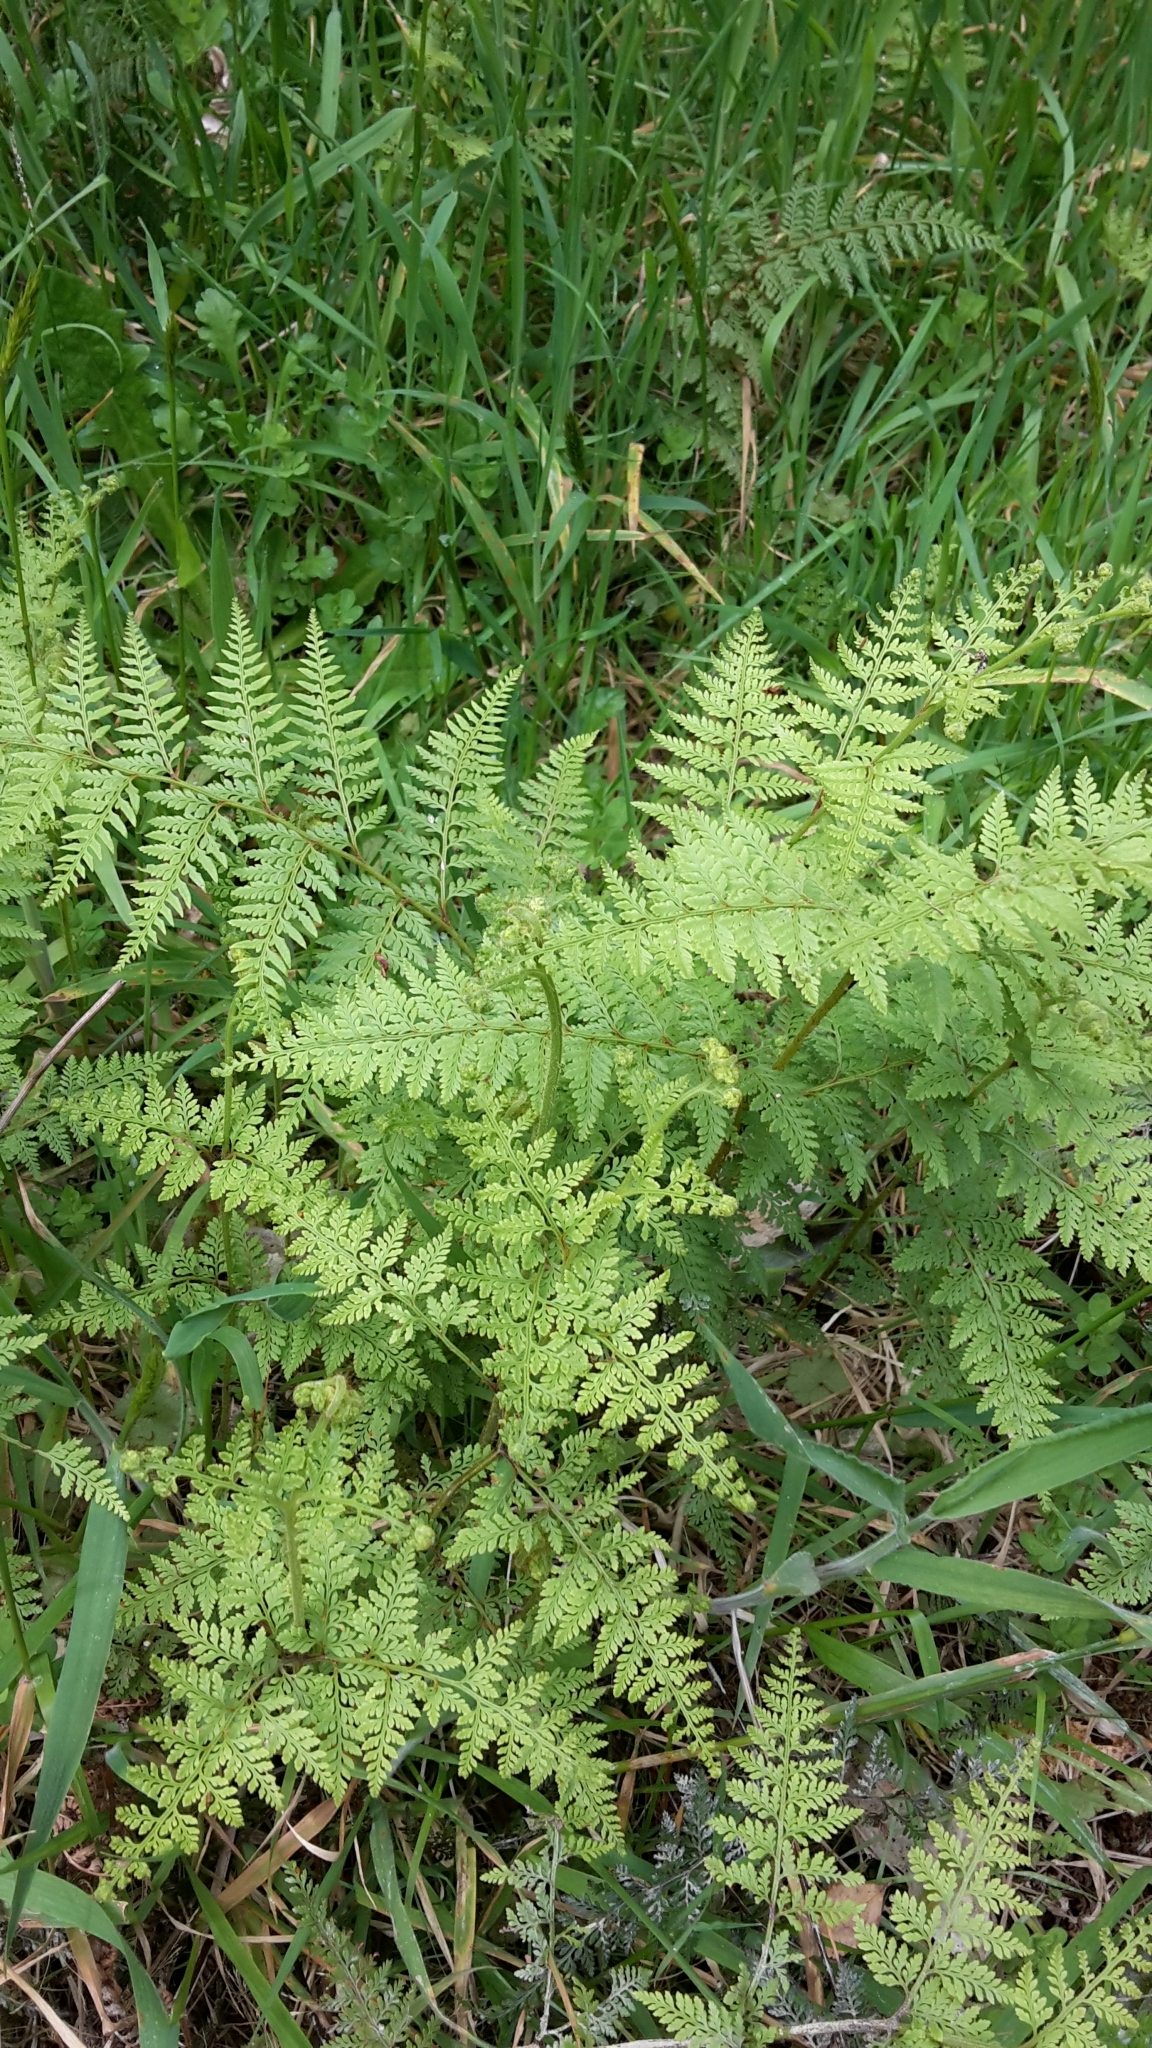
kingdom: Plantae
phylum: Tracheophyta
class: Polypodiopsida
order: Polypodiales
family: Dennstaedtiaceae
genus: Paesia
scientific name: Paesia scaberula
